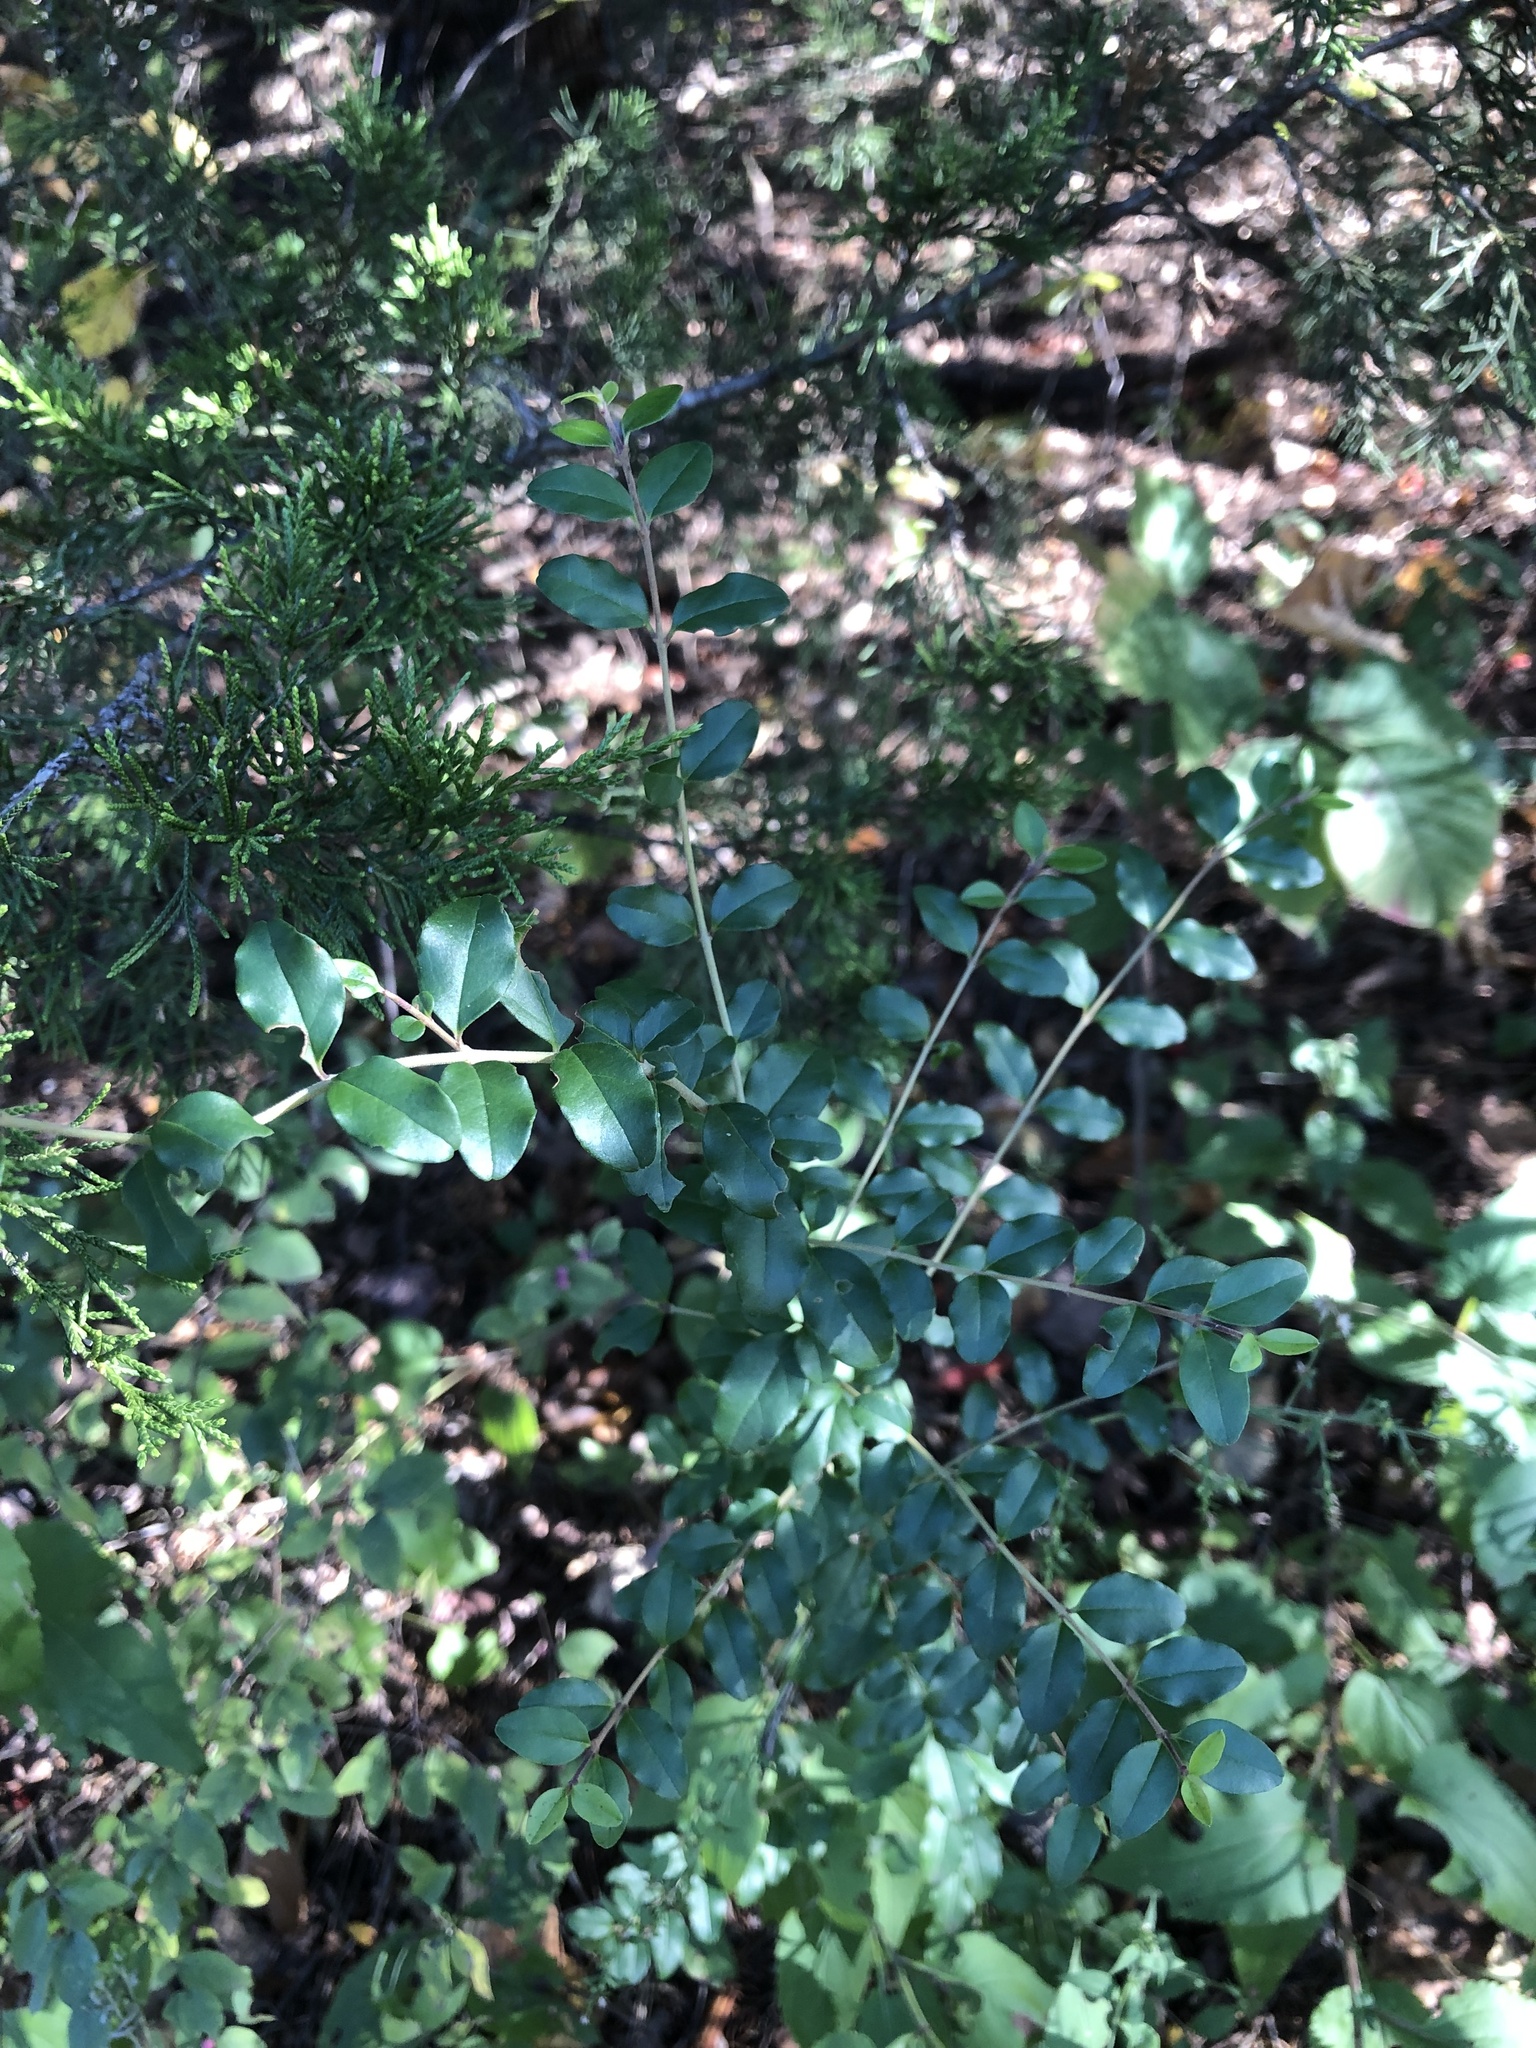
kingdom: Plantae
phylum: Tracheophyta
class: Magnoliopsida
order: Lamiales
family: Oleaceae
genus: Ligustrum
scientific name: Ligustrum sinense
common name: Chinese privet
